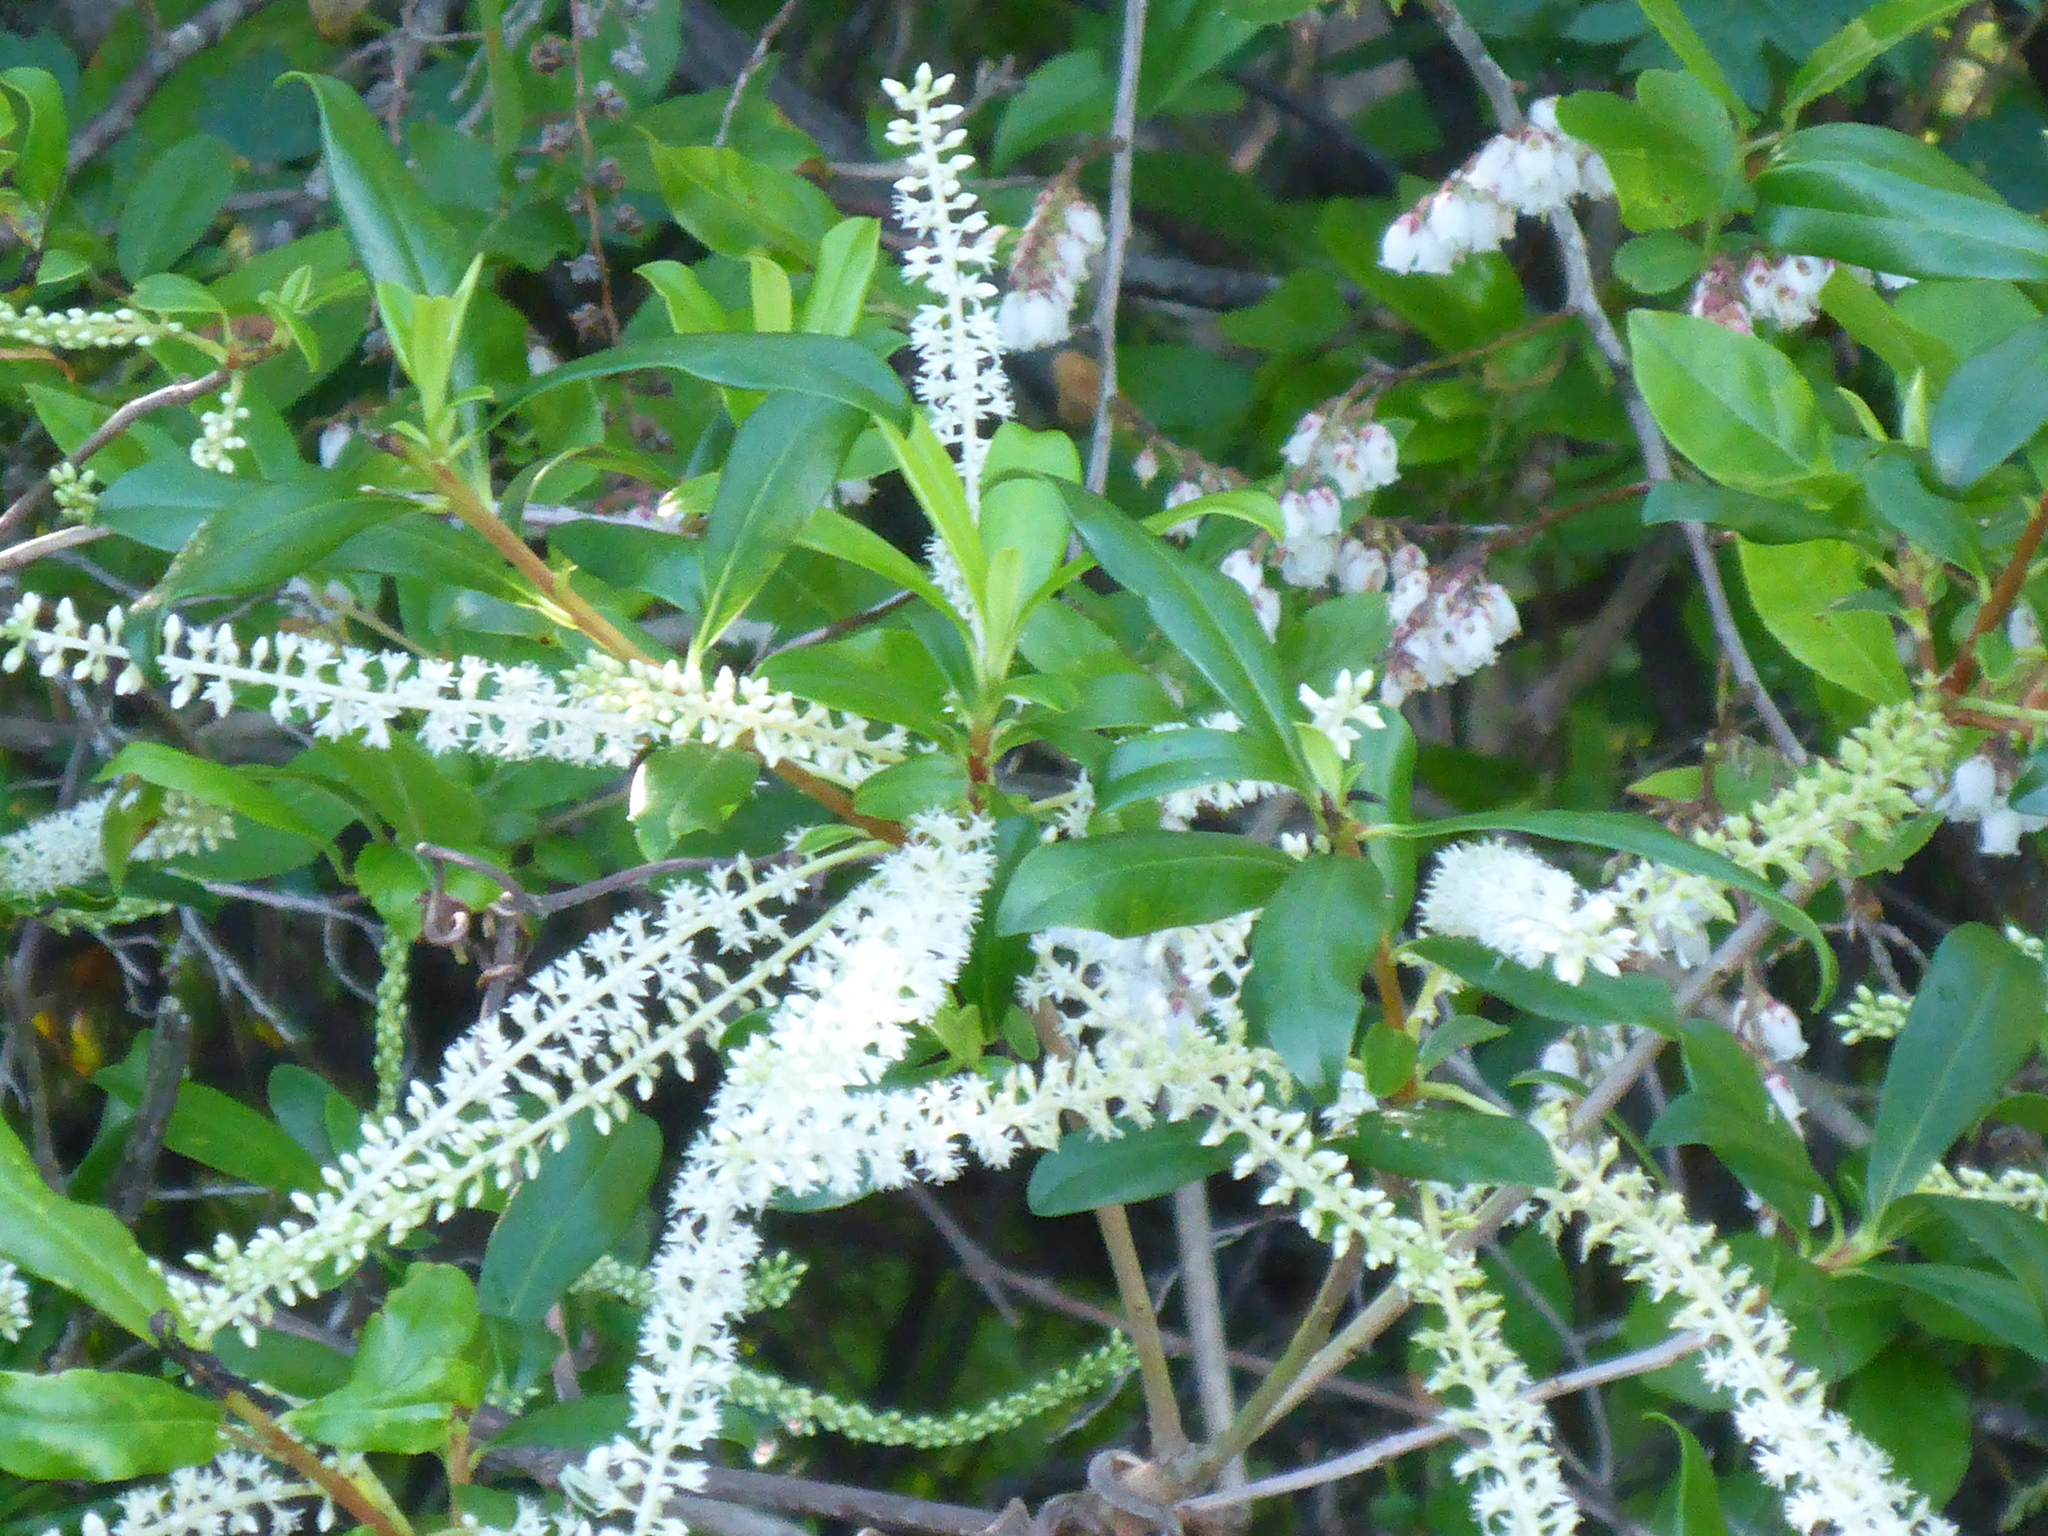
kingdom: Plantae
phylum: Tracheophyta
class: Magnoliopsida
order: Ericales
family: Cyrillaceae
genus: Cyrilla
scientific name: Cyrilla racemiflora
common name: Black titi
